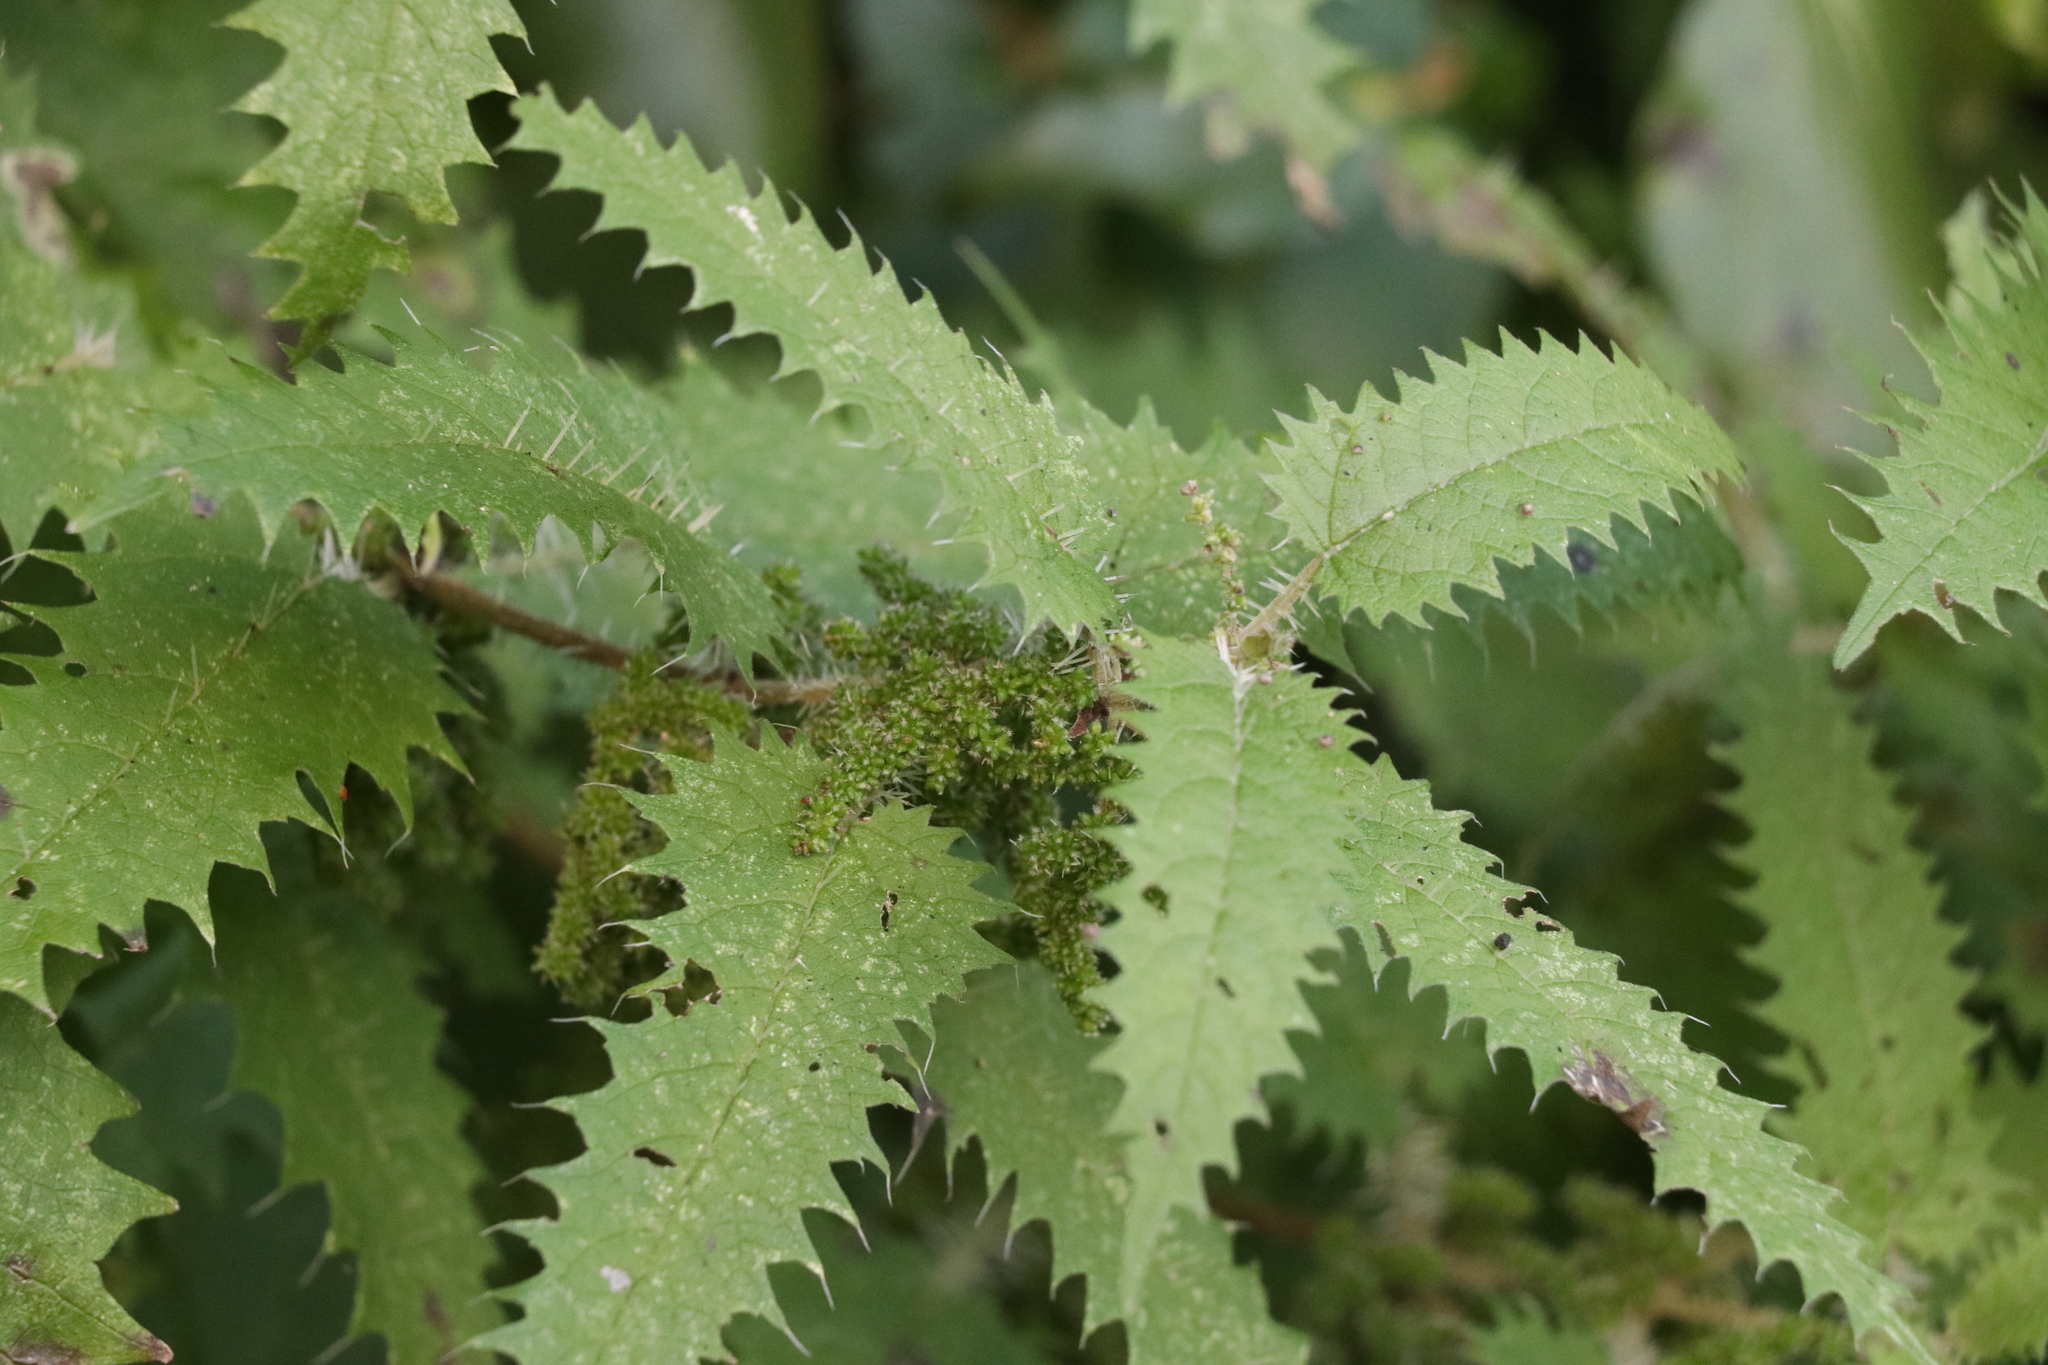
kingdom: Plantae
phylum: Tracheophyta
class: Magnoliopsida
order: Rosales
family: Urticaceae
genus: Urtica
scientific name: Urtica ferox
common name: Tree nettle
